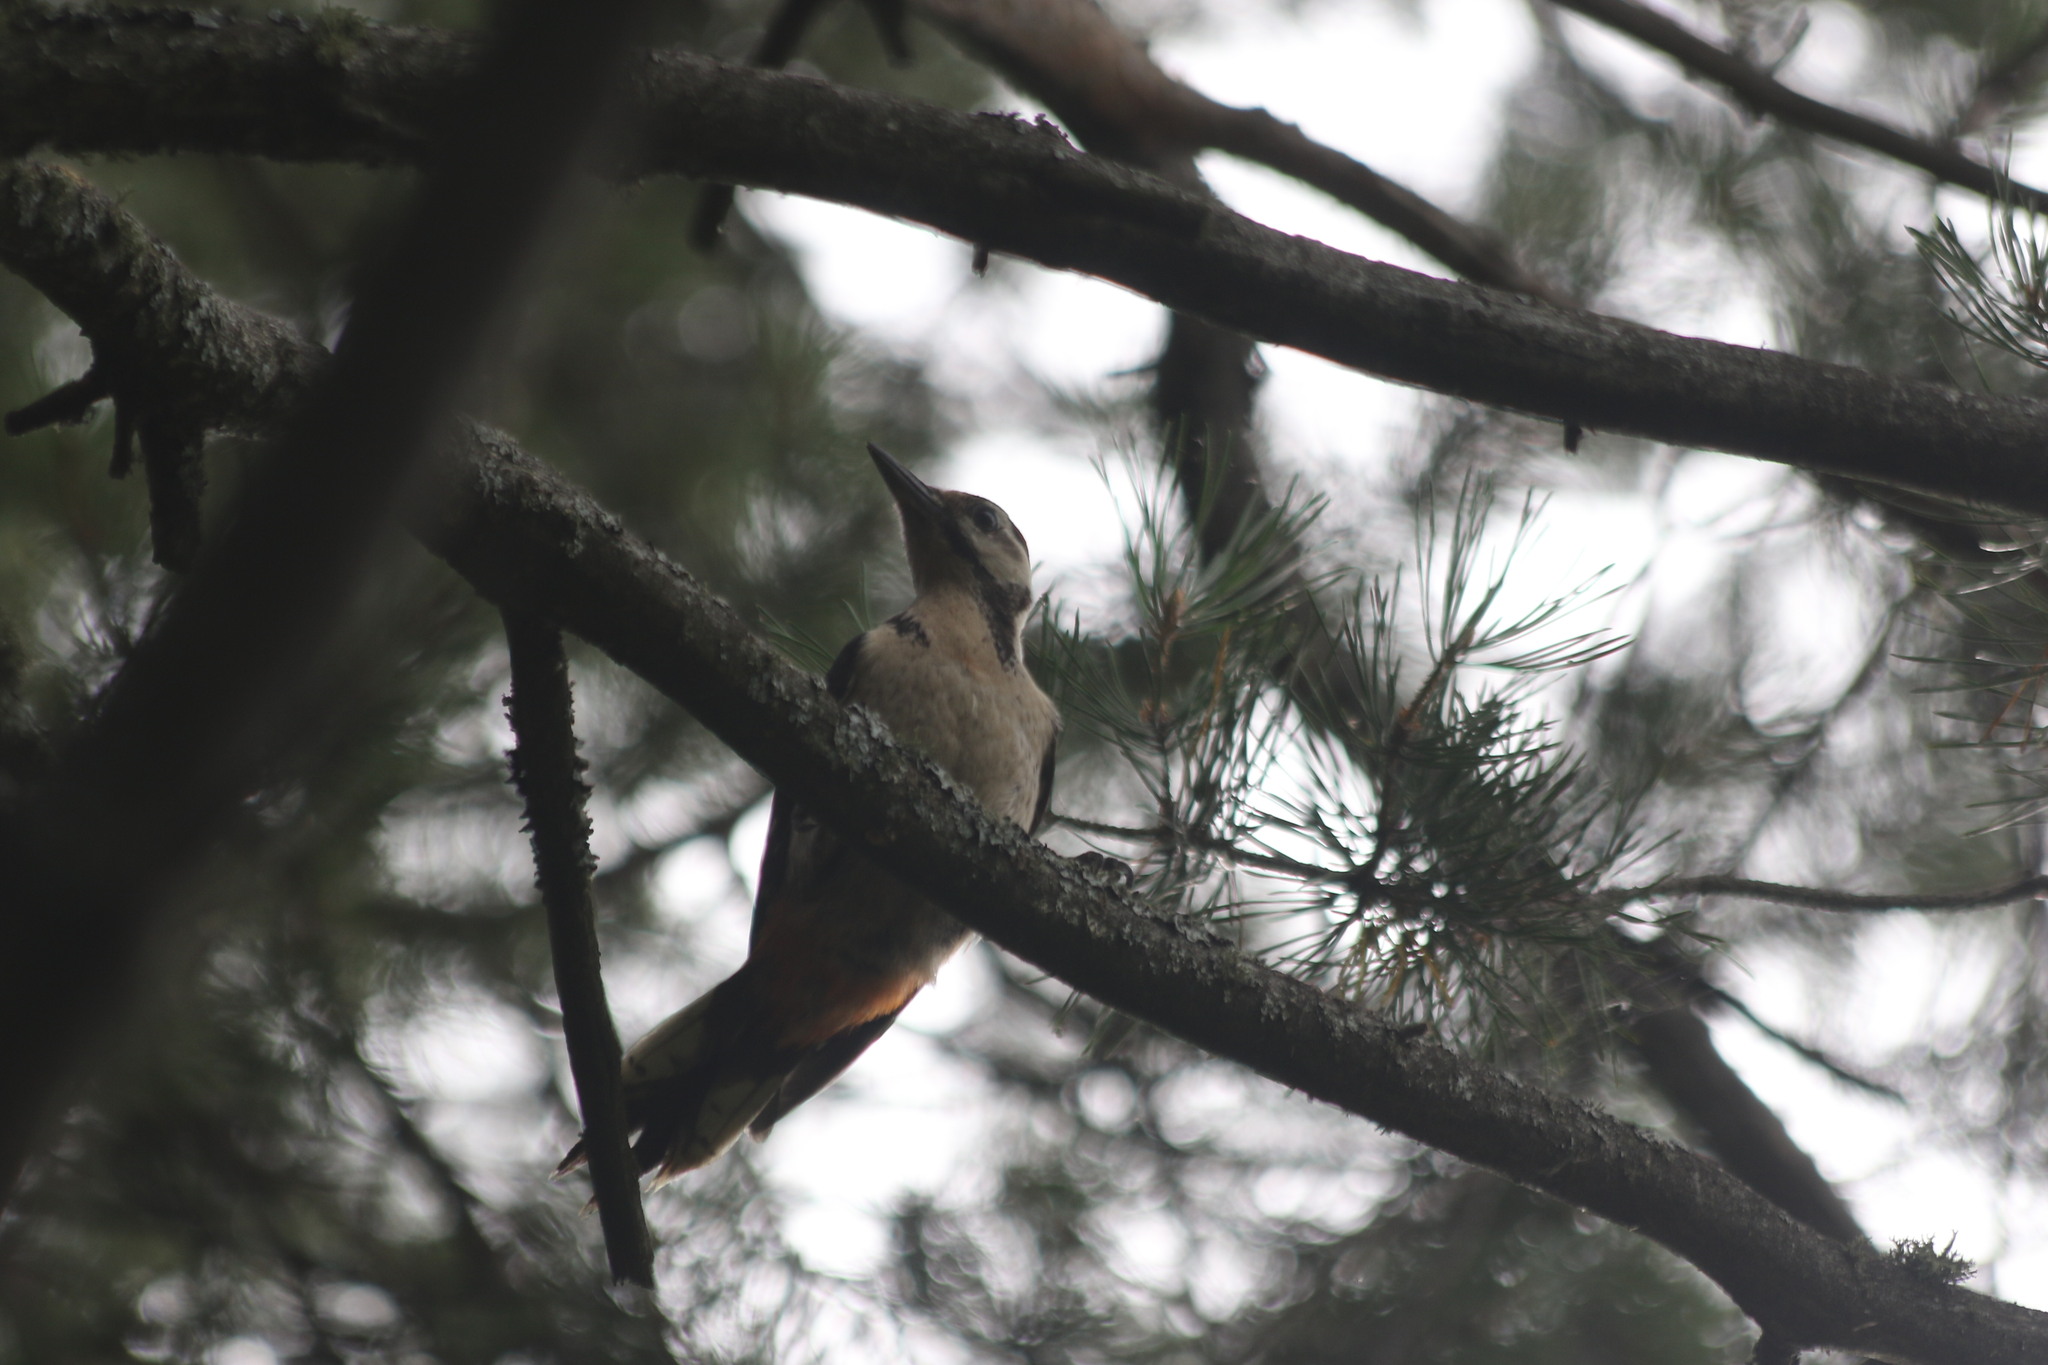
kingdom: Animalia
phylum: Chordata
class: Aves
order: Piciformes
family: Picidae
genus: Dendrocopos
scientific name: Dendrocopos major
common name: Great spotted woodpecker
